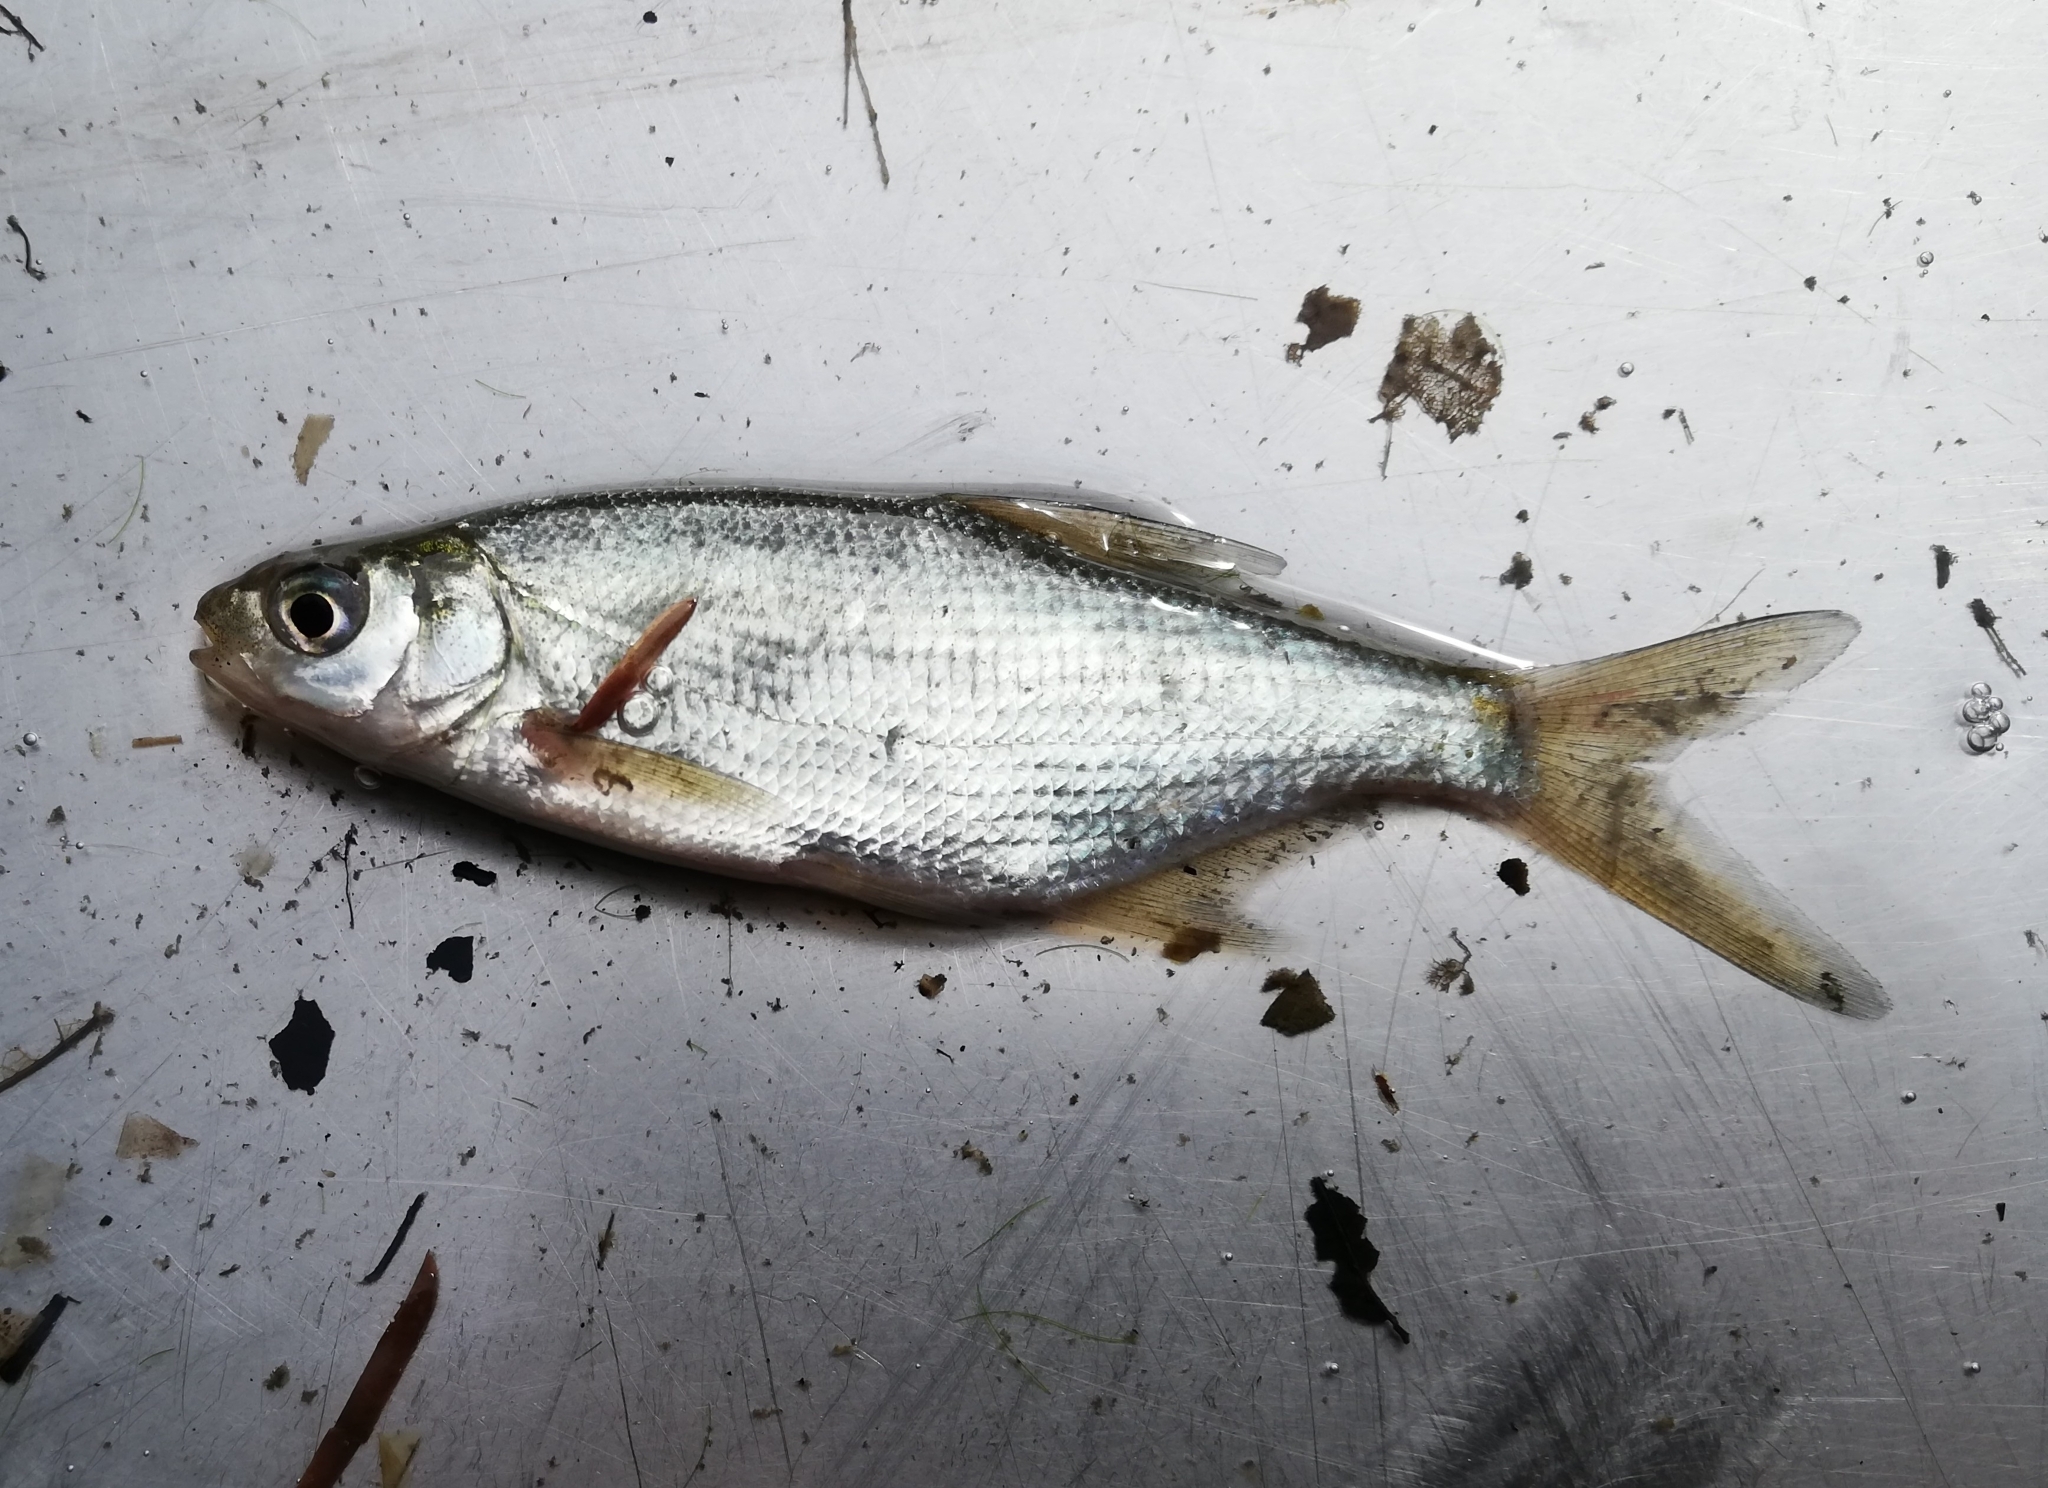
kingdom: Animalia
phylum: Chordata
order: Cypriniformes
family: Cyprinidae
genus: Abramis
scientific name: Abramis brama
